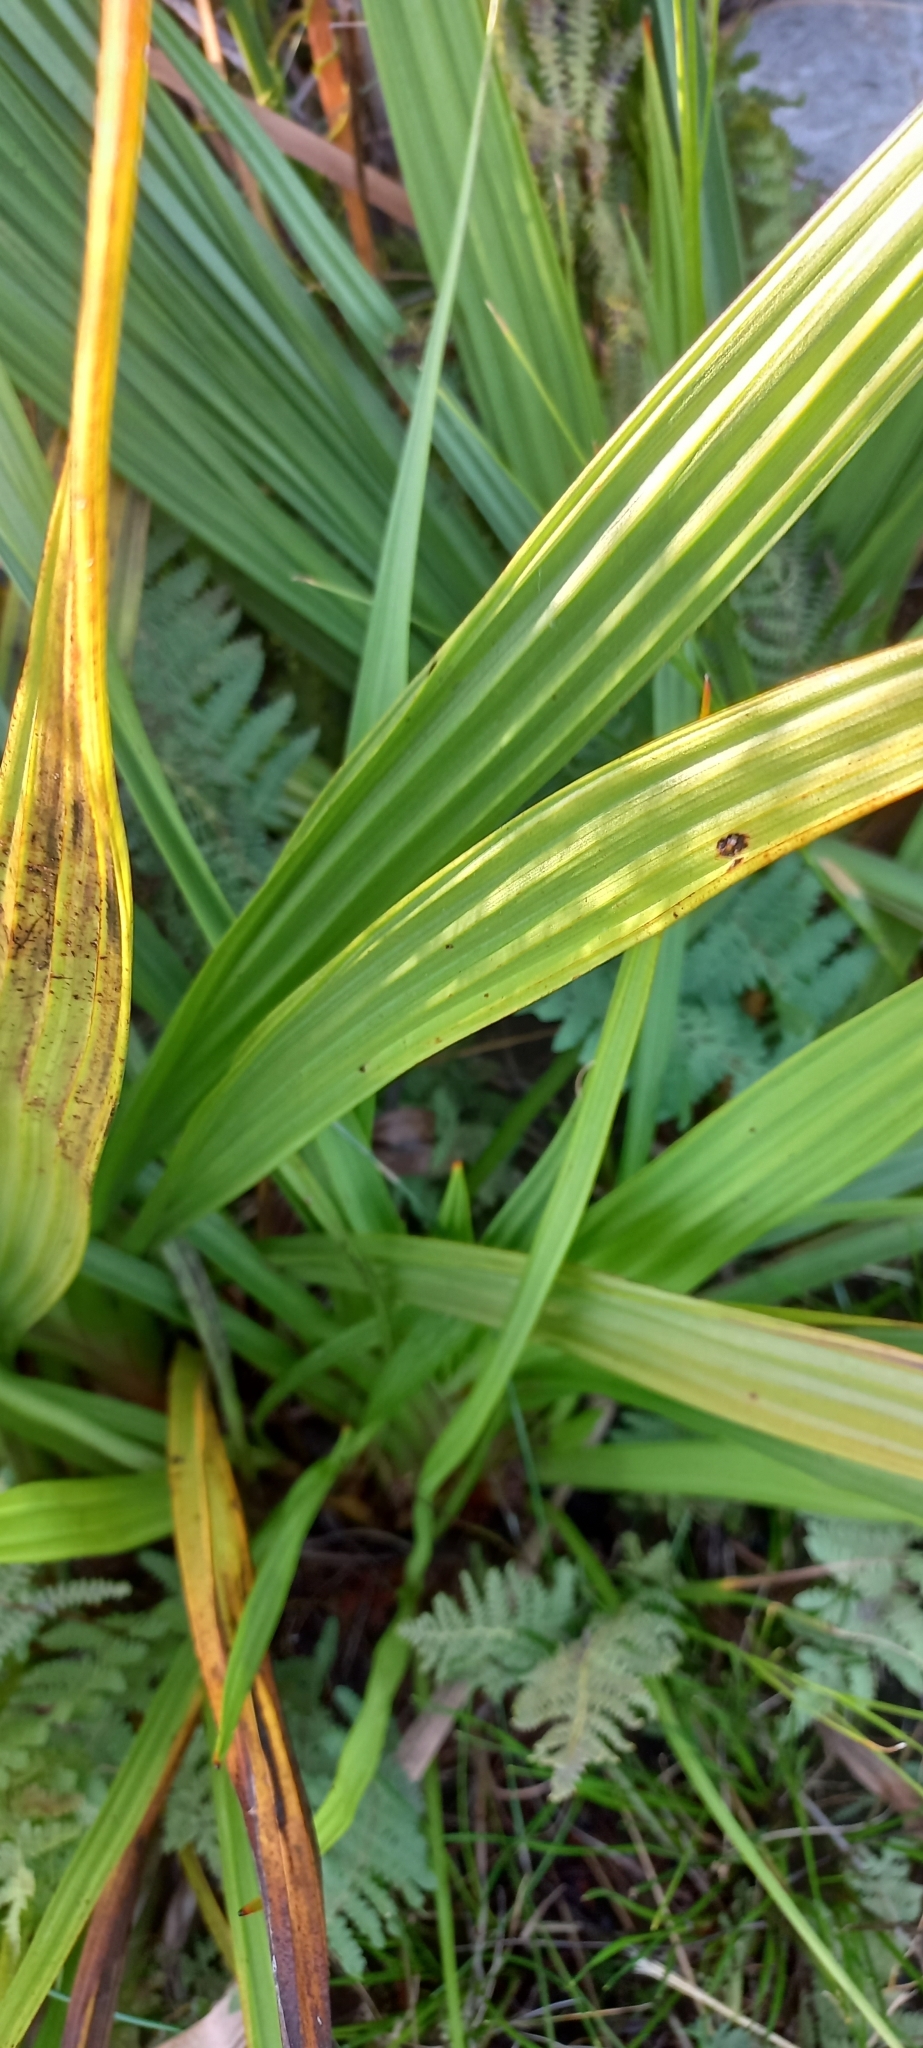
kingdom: Plantae
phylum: Tracheophyta
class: Liliopsida
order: Commelinales
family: Haemodoraceae
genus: Wachendorfia
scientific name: Wachendorfia thyrsiflora
